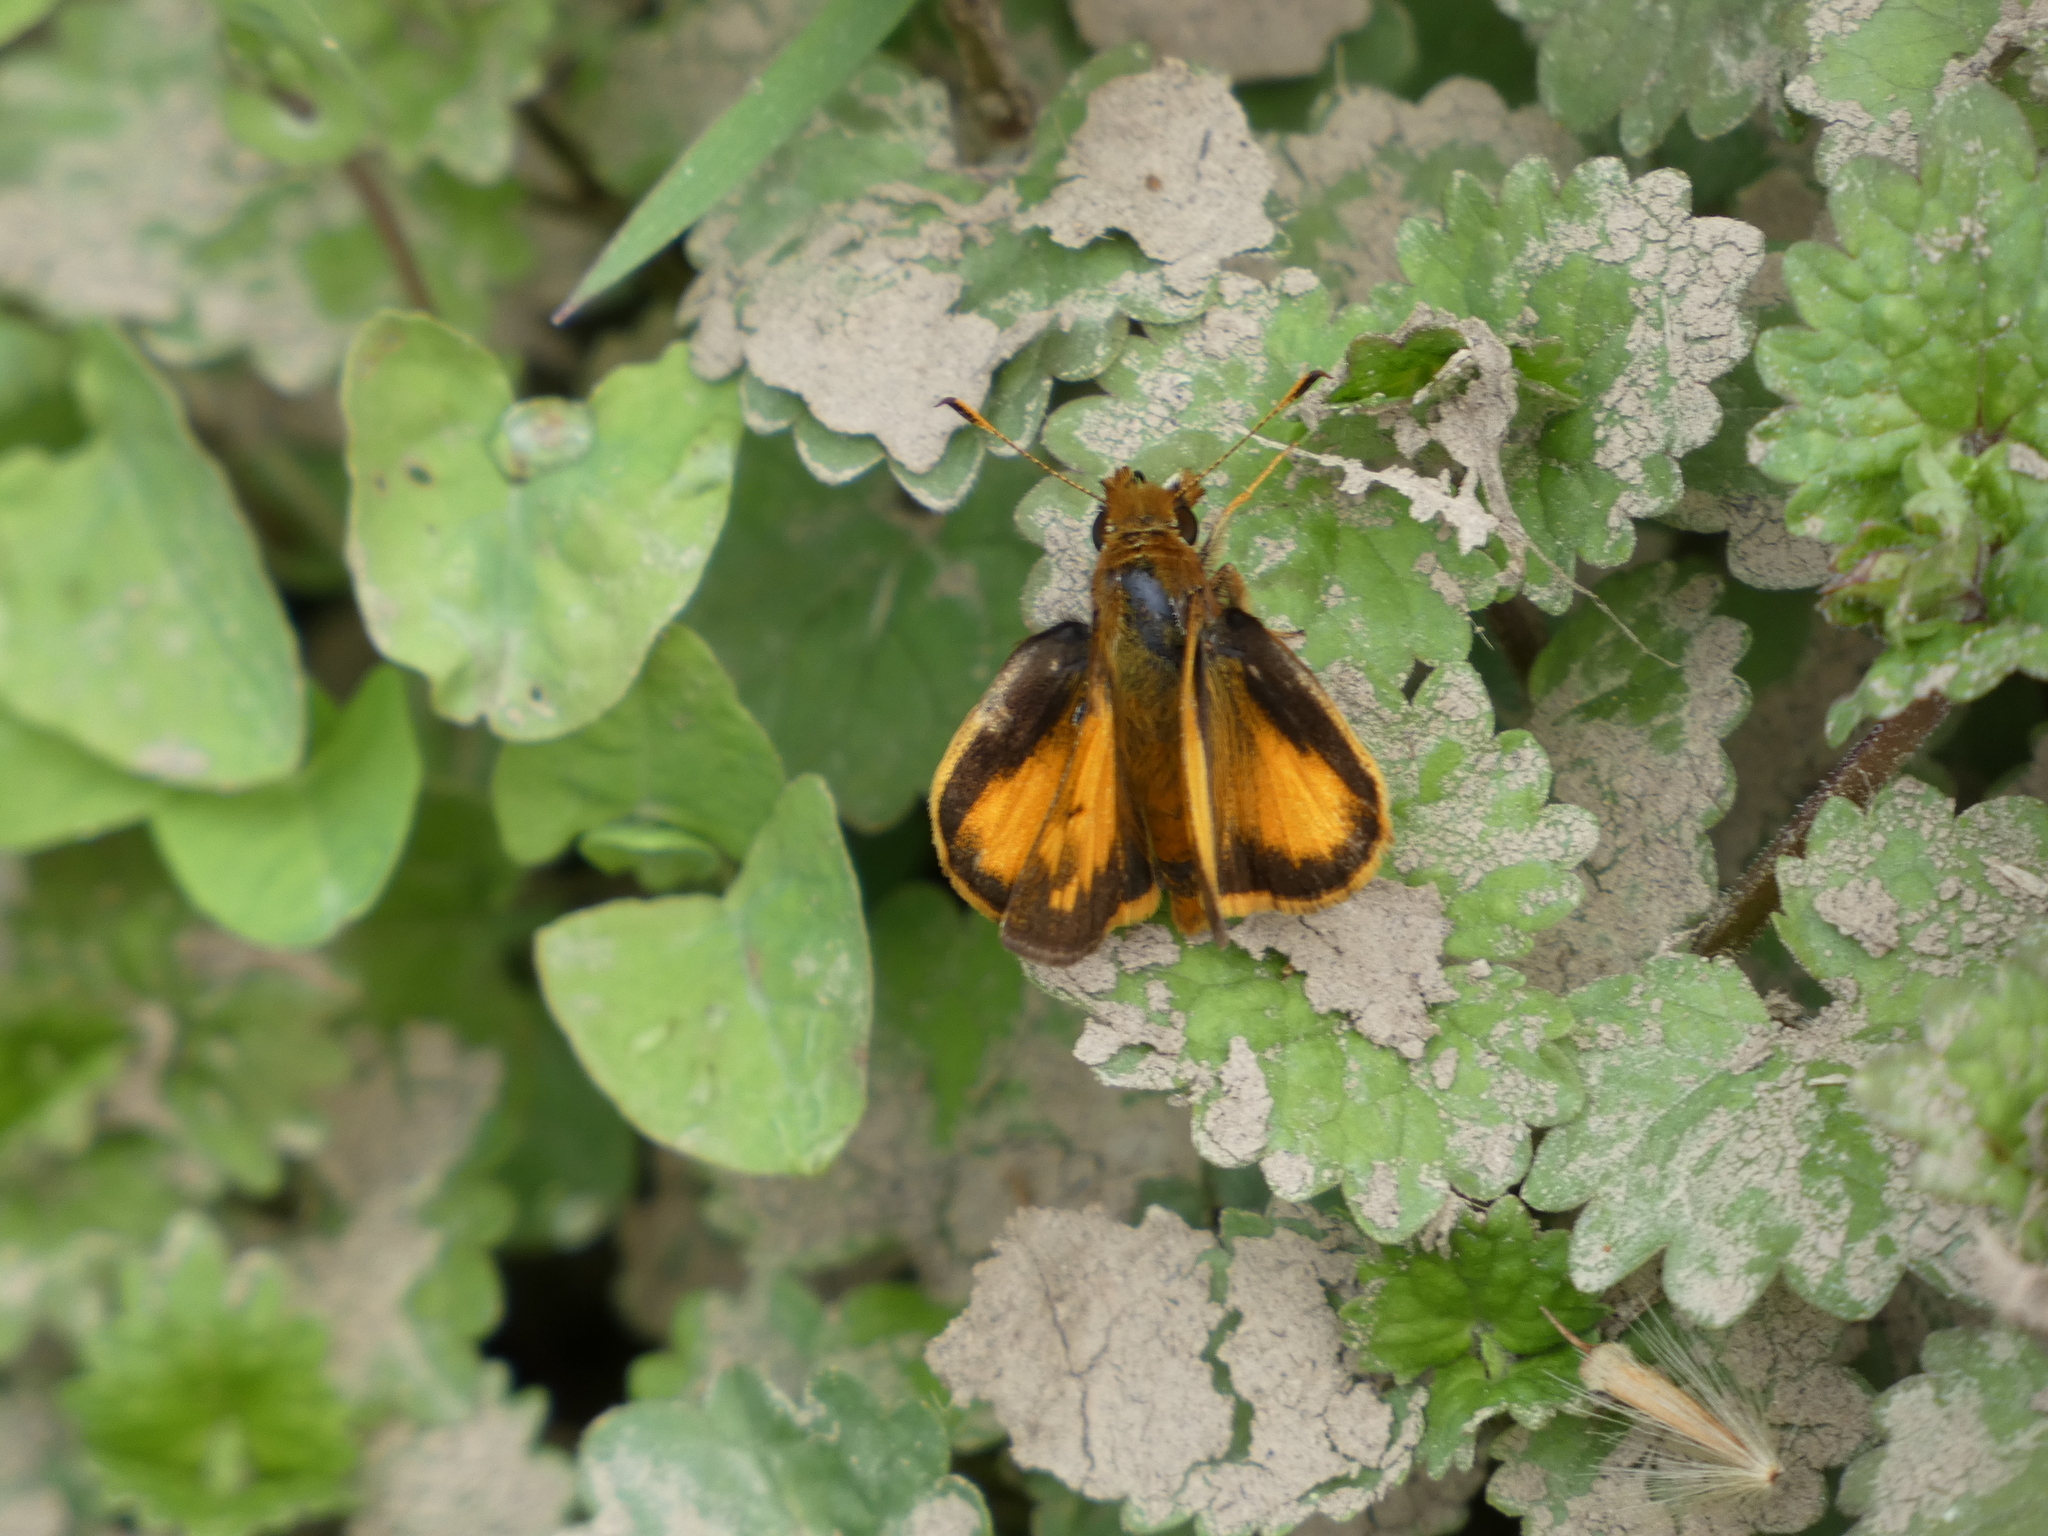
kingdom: Animalia
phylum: Arthropoda
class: Insecta
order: Lepidoptera
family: Hesperiidae
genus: Lon
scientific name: Lon zabulon
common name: Zabulon skipper
